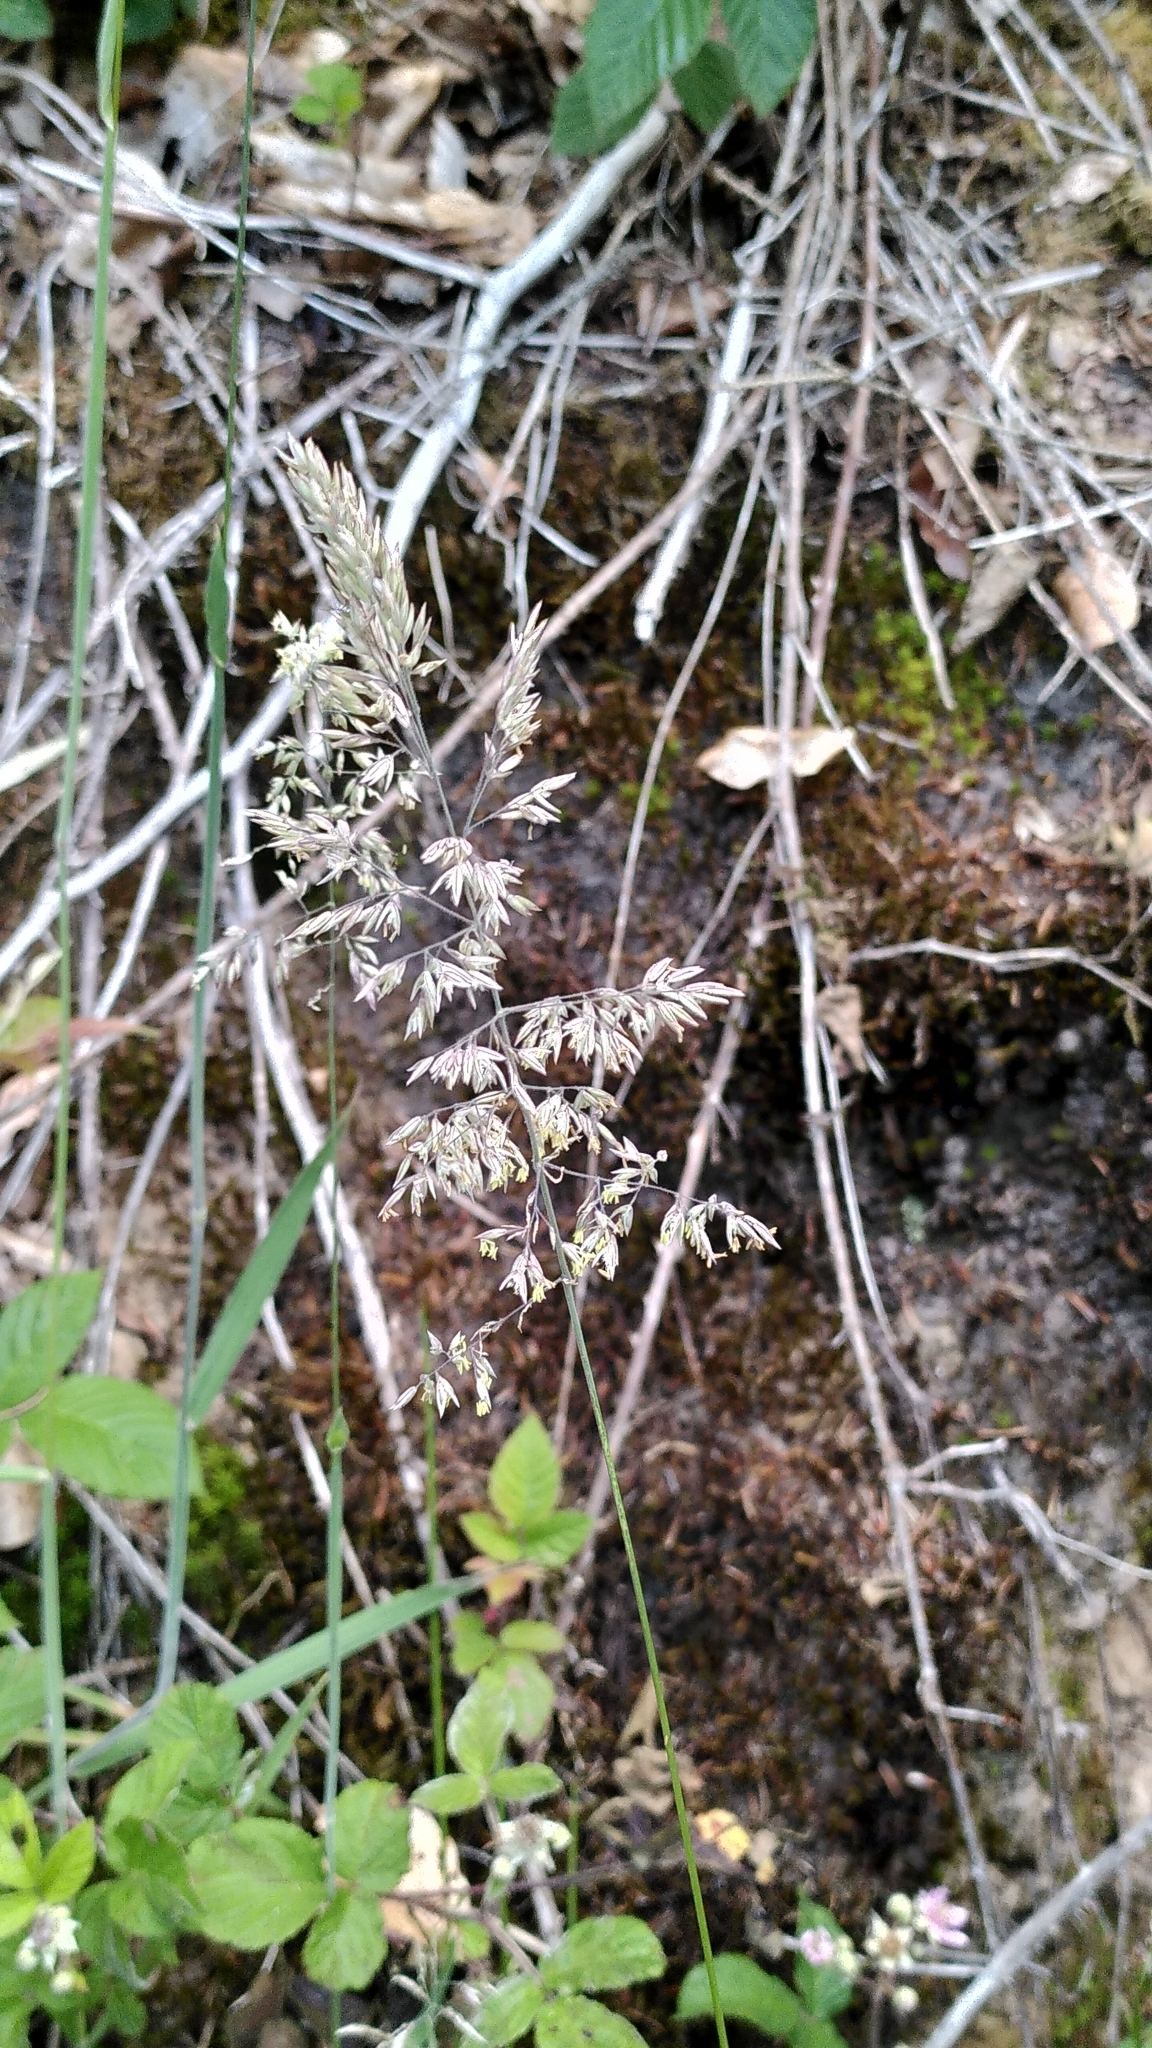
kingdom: Plantae
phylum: Tracheophyta
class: Liliopsida
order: Poales
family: Poaceae
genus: Holcus
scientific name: Holcus lanatus
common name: Yorkshire-fog
